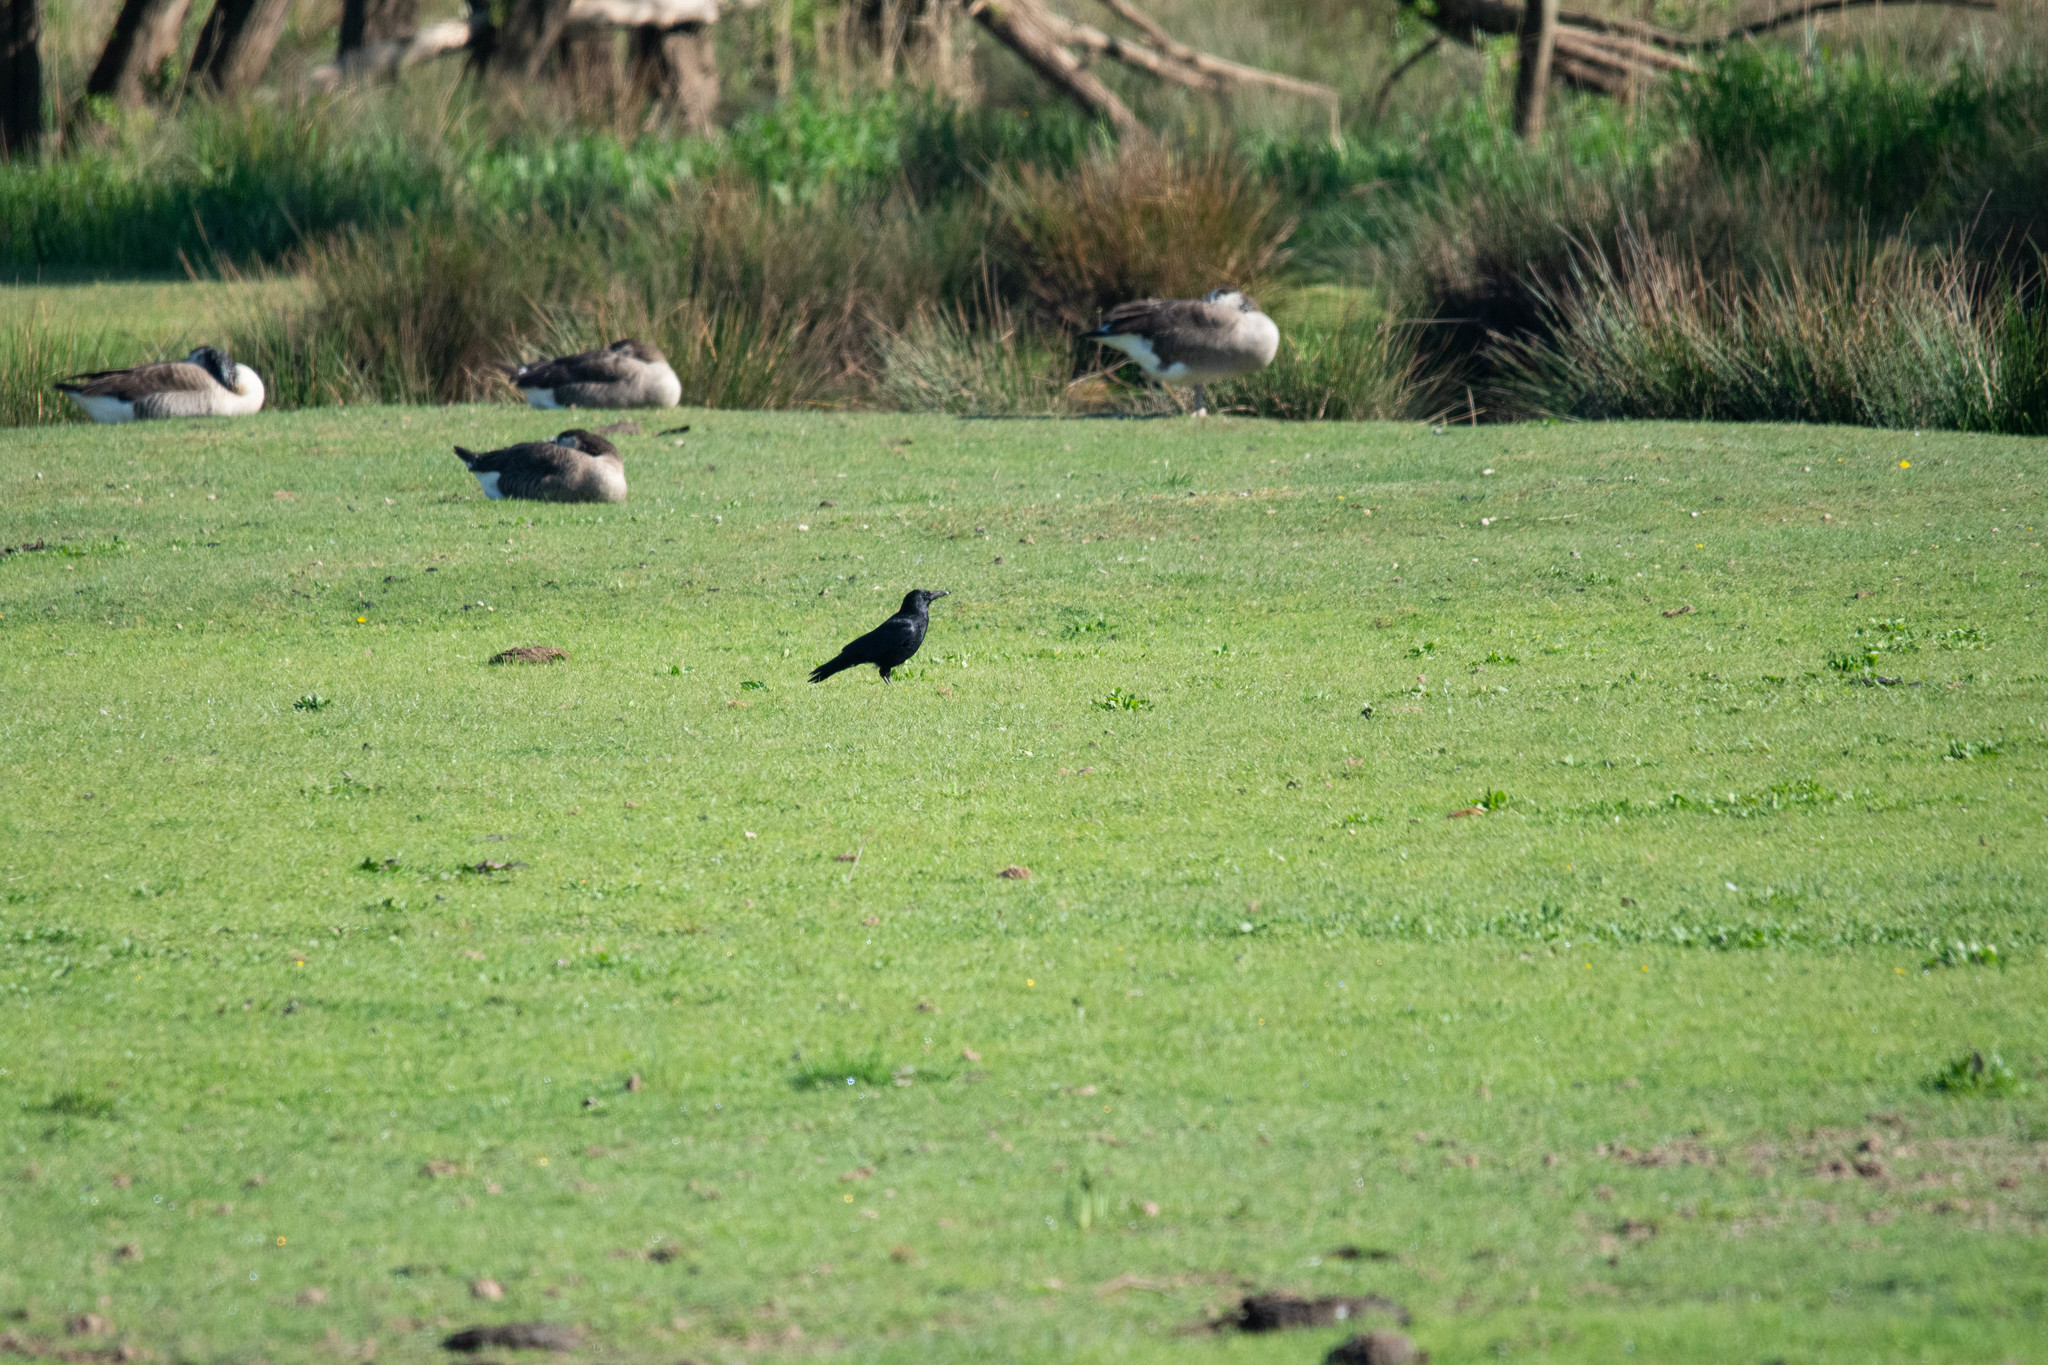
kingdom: Animalia
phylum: Chordata
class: Aves
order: Passeriformes
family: Corvidae
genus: Corvus
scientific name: Corvus corone
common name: Carrion crow
